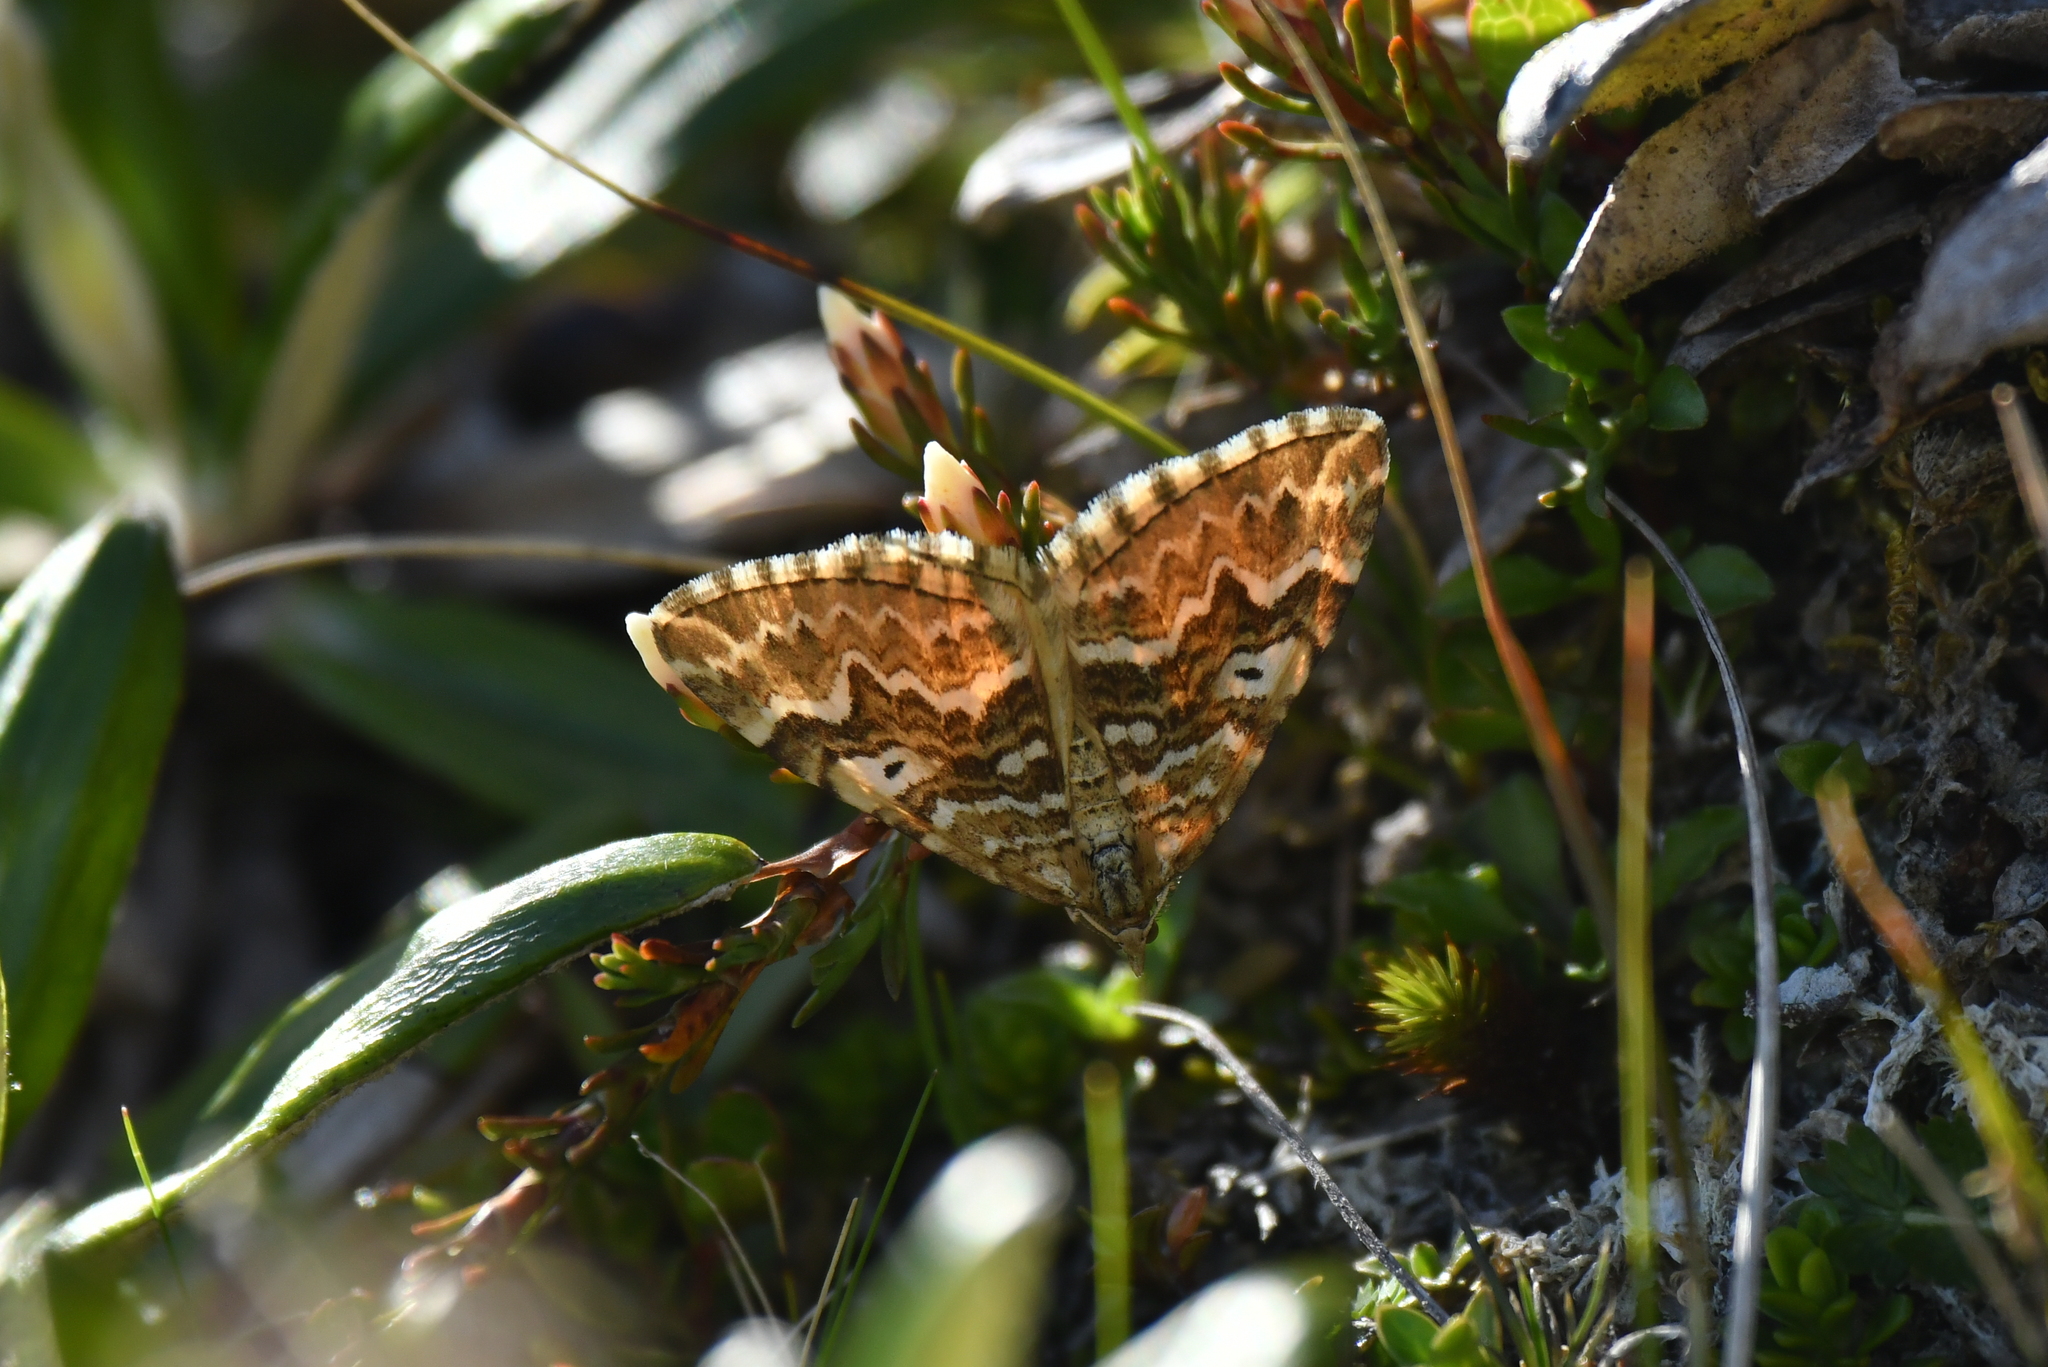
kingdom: Animalia
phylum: Arthropoda
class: Insecta
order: Lepidoptera
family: Geometridae
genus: Asaphodes
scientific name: Asaphodes clarata
